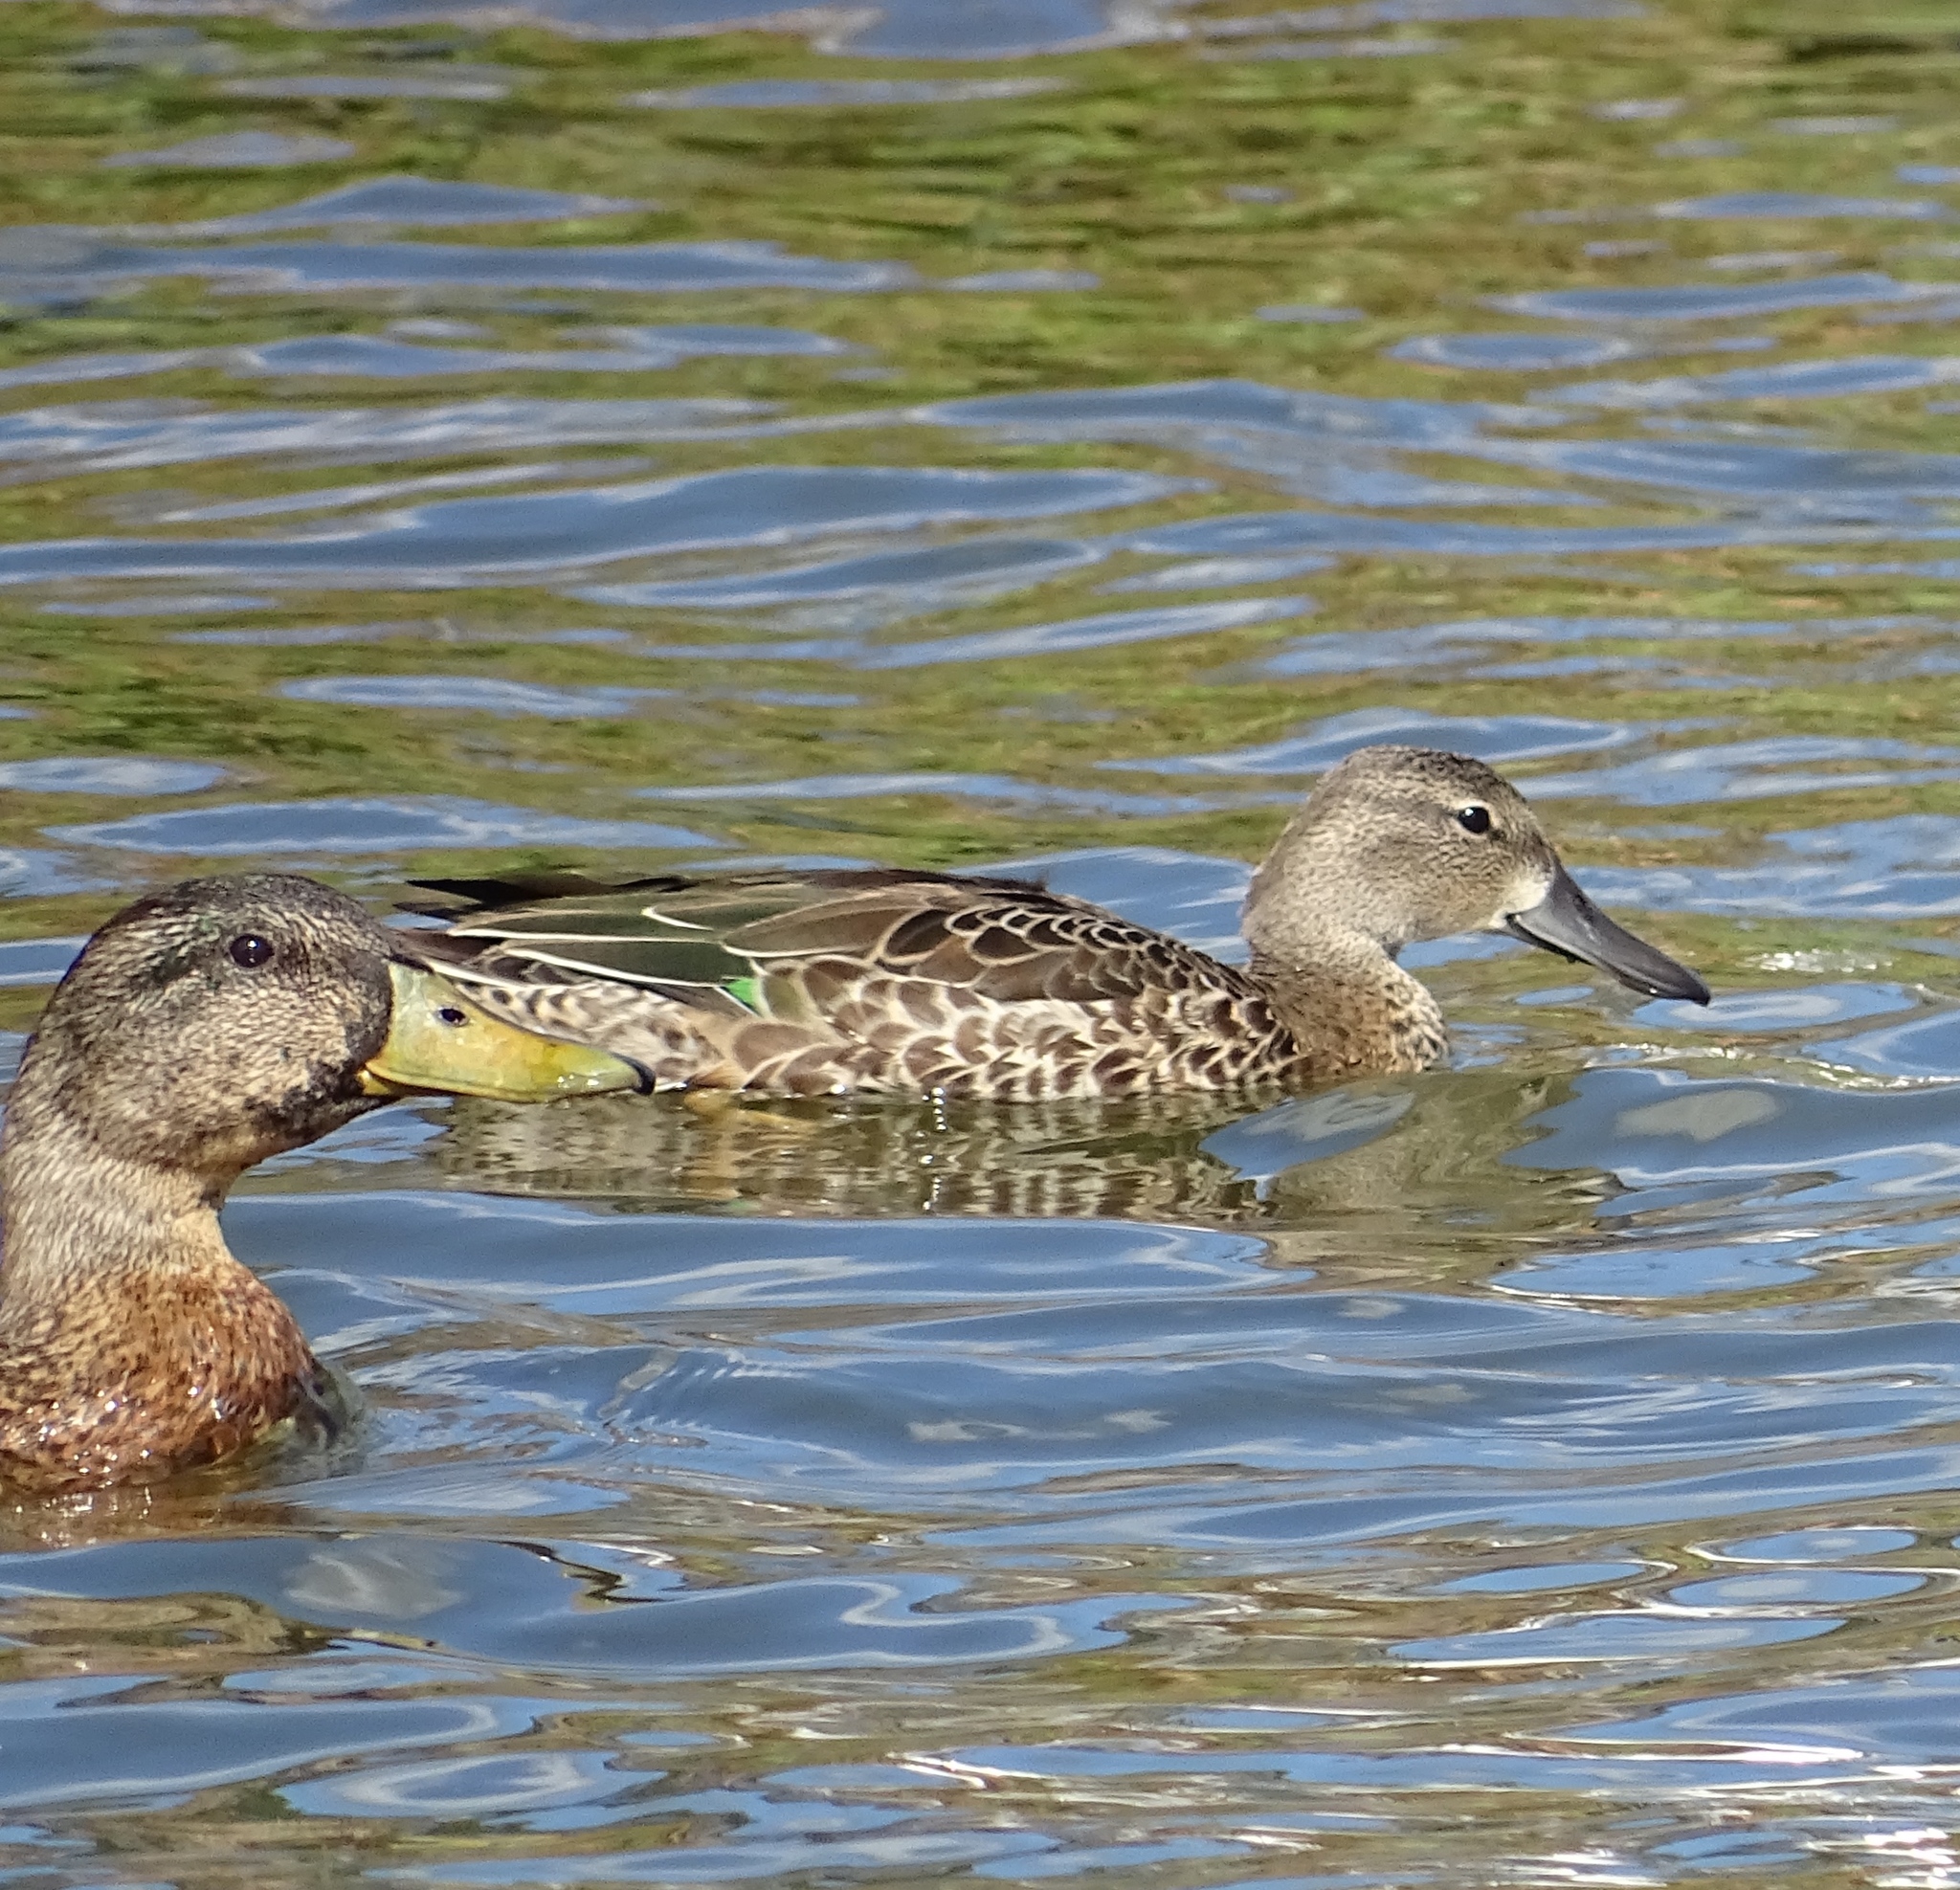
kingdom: Animalia
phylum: Chordata
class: Aves
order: Anseriformes
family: Anatidae
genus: Spatula
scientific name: Spatula discors
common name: Blue-winged teal
